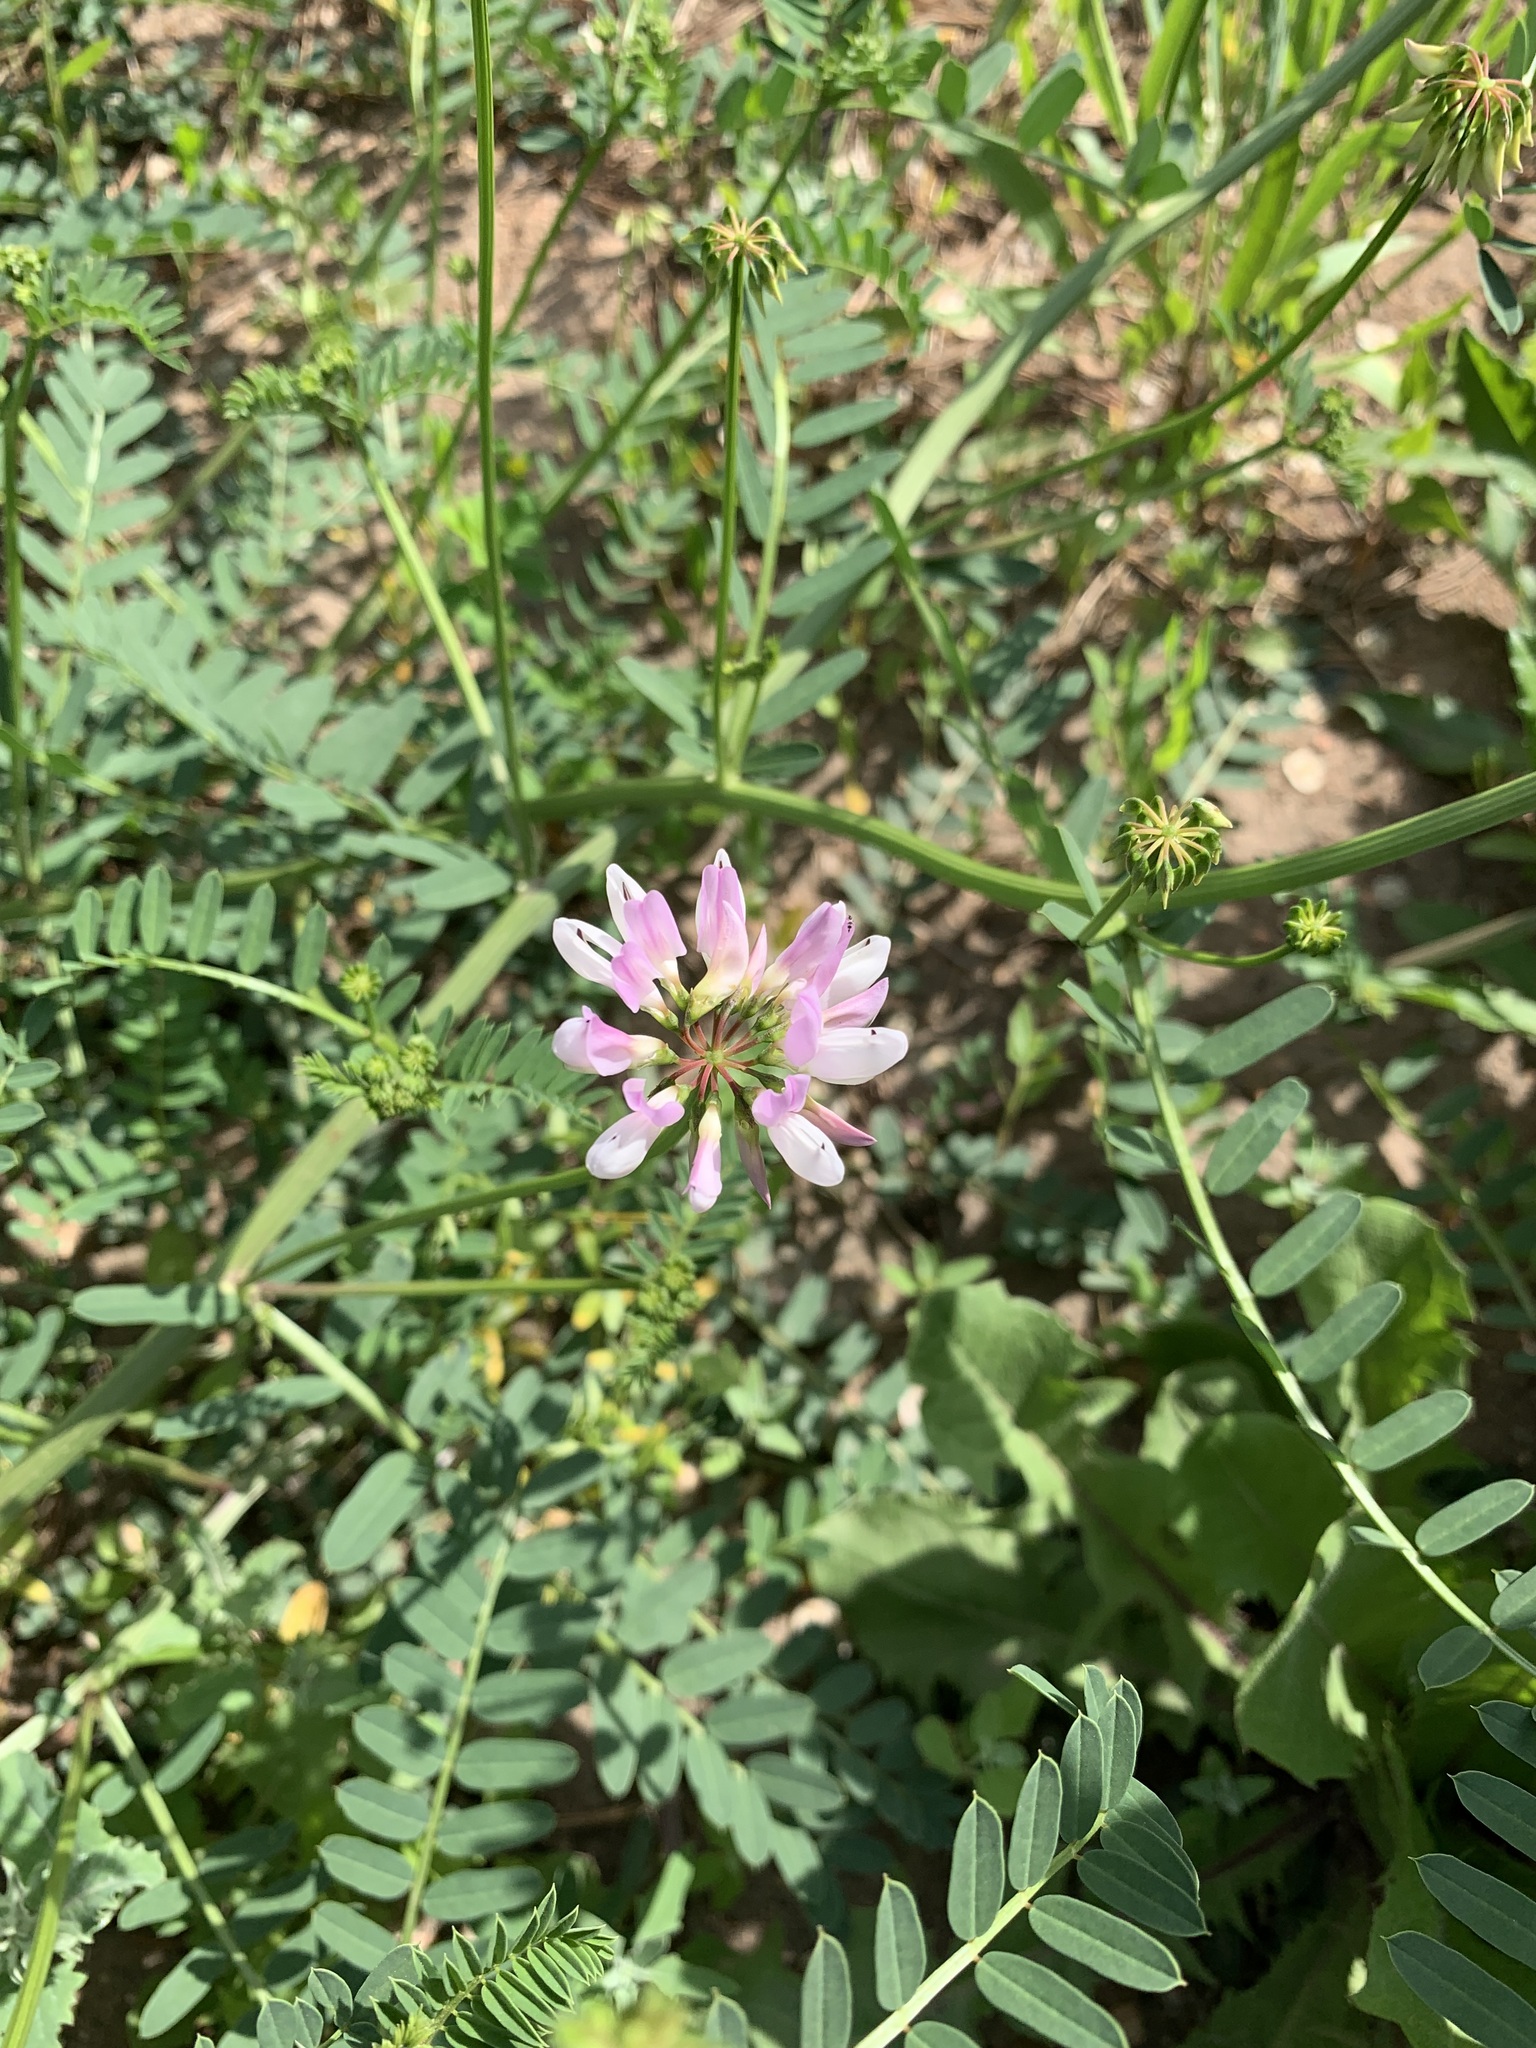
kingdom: Plantae
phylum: Tracheophyta
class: Magnoliopsida
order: Fabales
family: Fabaceae
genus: Coronilla
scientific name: Coronilla varia
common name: Crownvetch
